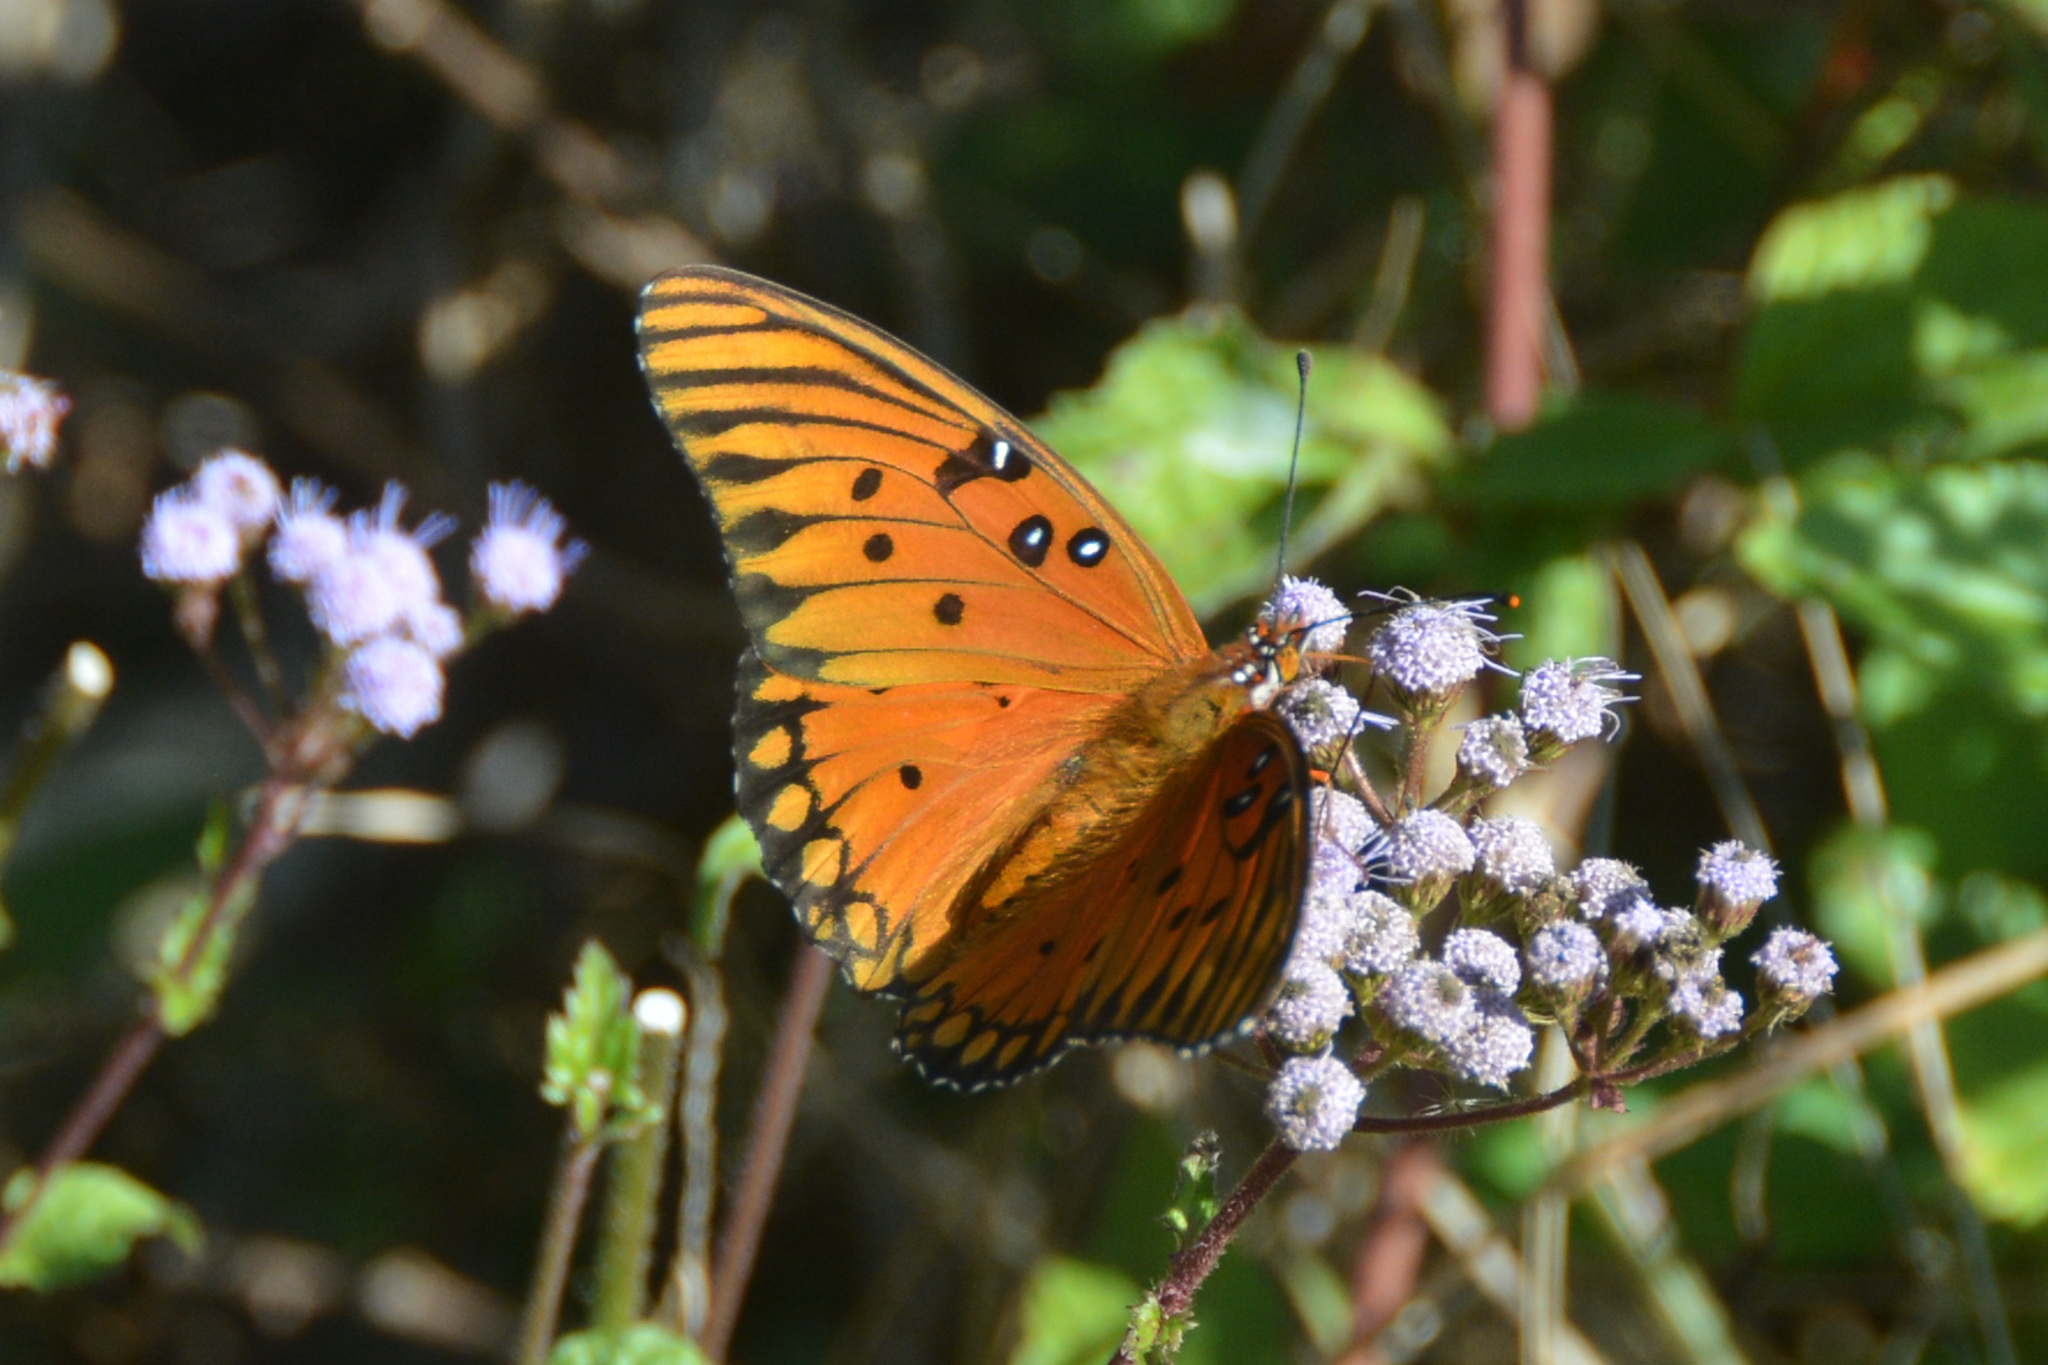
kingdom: Animalia
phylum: Arthropoda
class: Insecta
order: Lepidoptera
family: Nymphalidae
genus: Dione
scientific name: Dione vanillae
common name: Gulf fritillary
